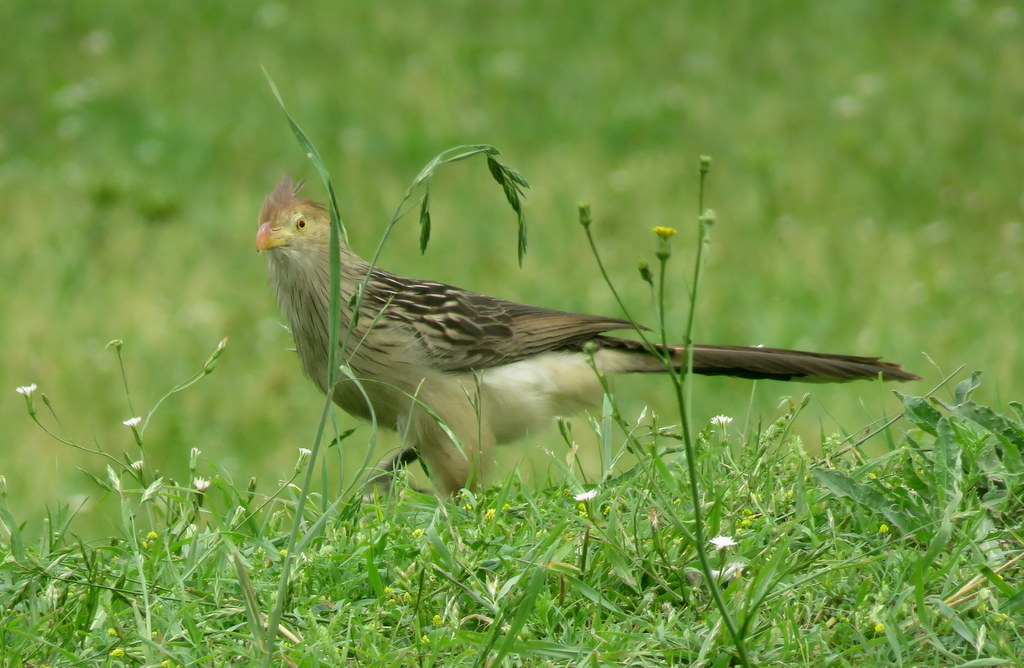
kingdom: Animalia
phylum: Chordata
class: Aves
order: Cuculiformes
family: Cuculidae
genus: Guira
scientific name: Guira guira
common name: Guira cuckoo
